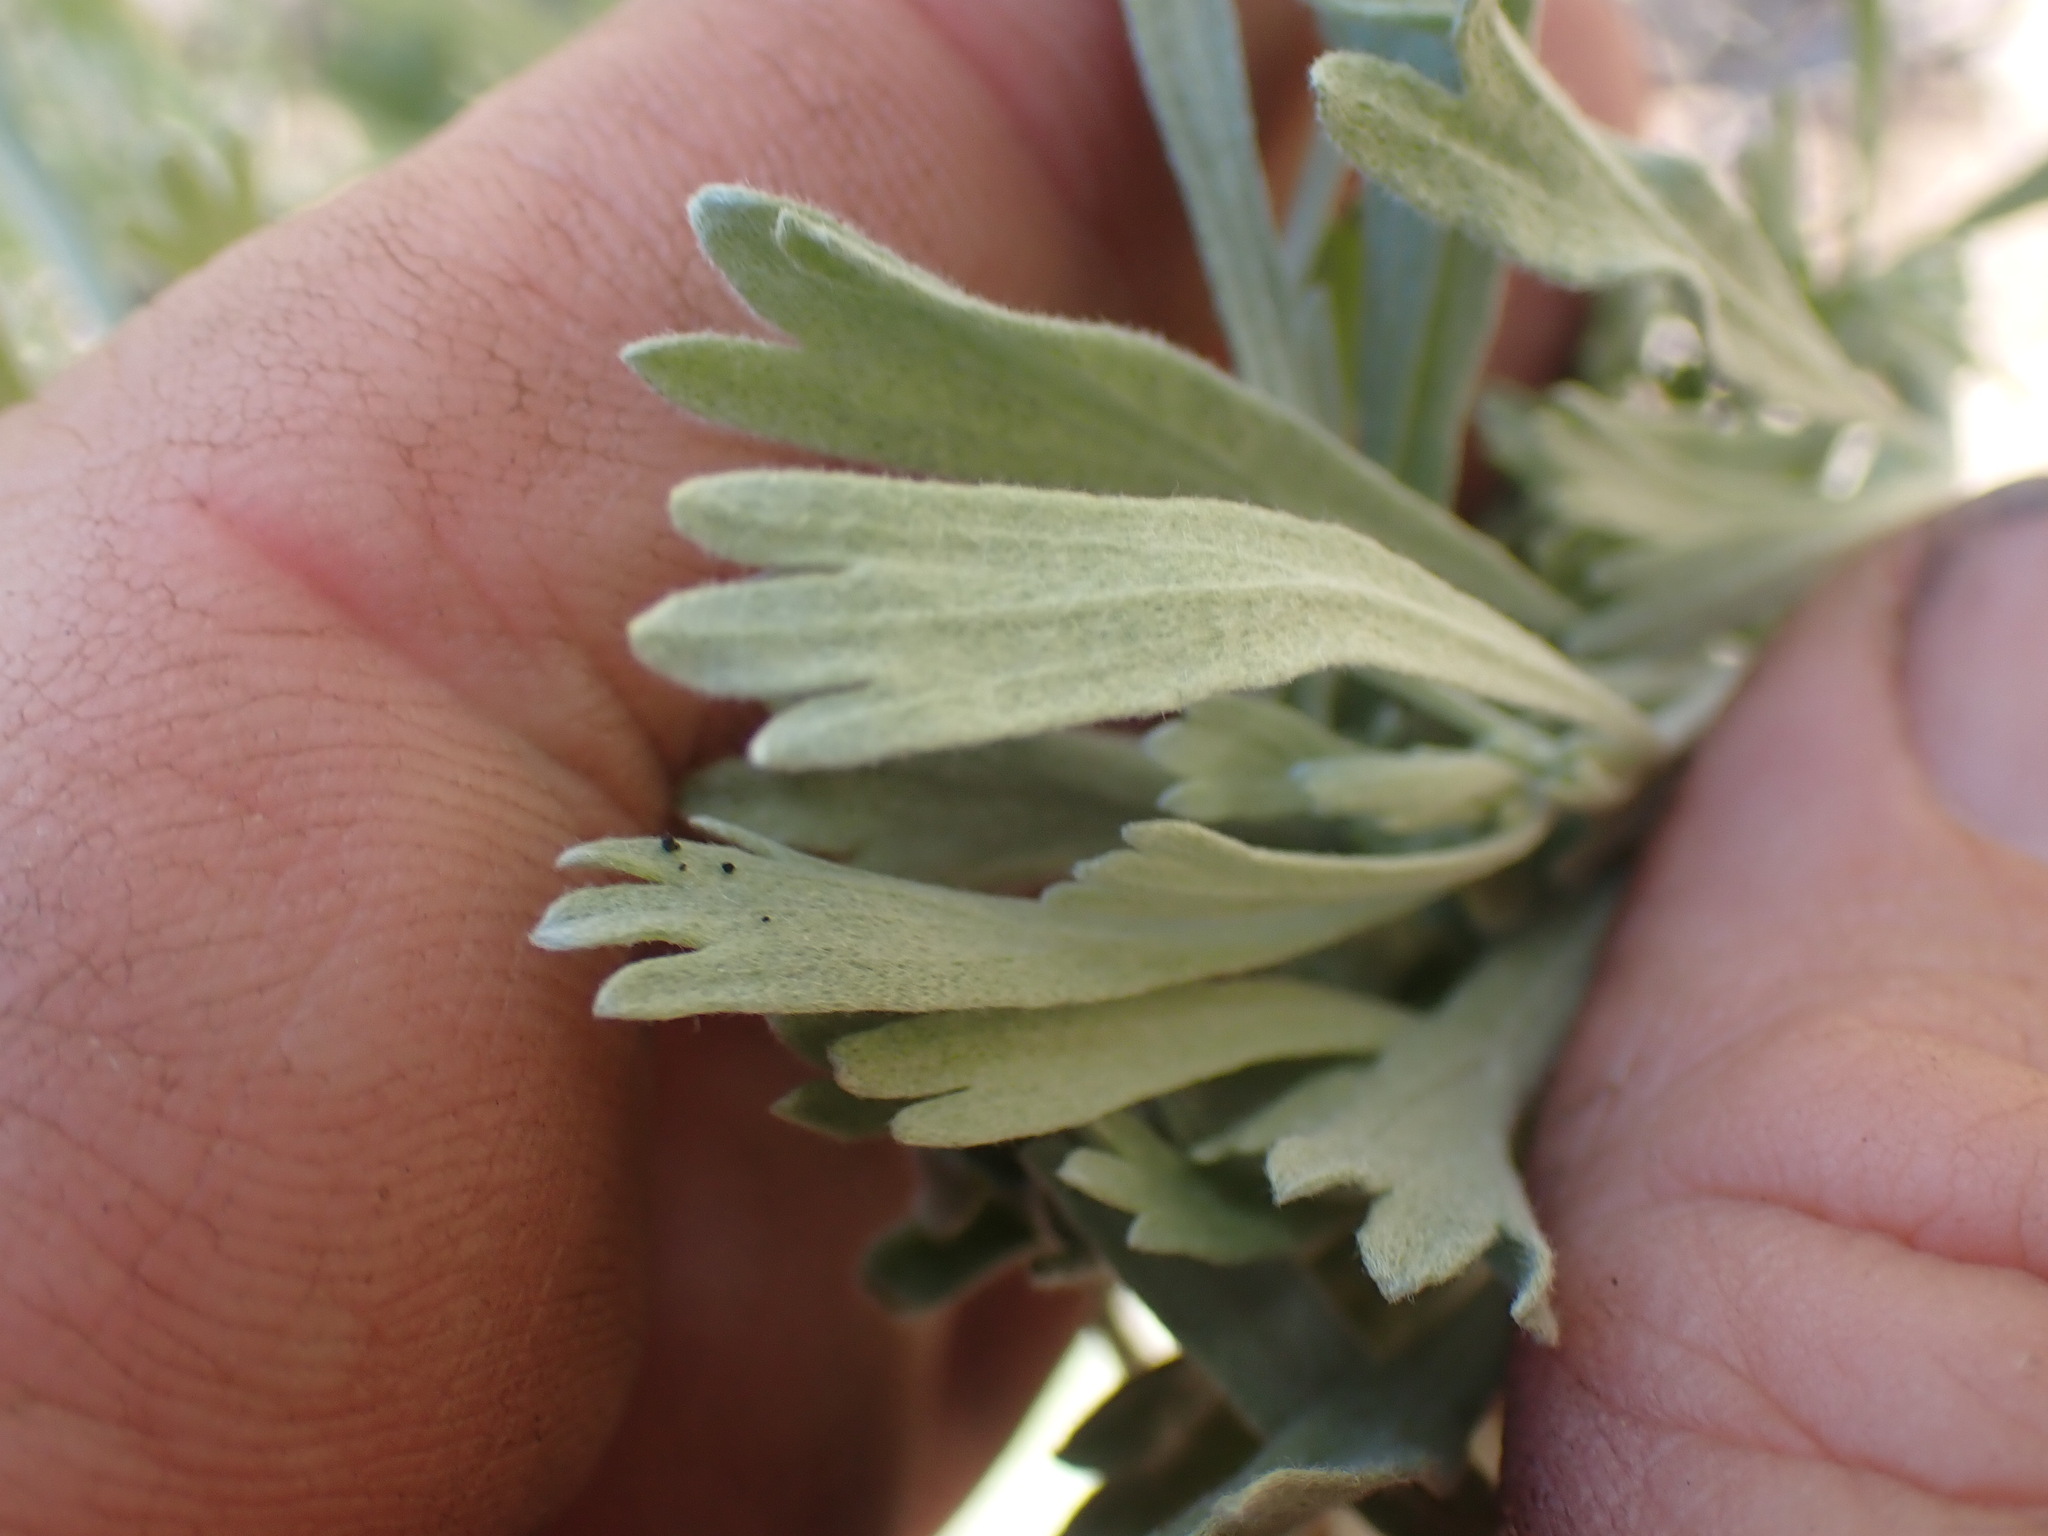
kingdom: Plantae
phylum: Tracheophyta
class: Magnoliopsida
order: Asterales
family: Asteraceae
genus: Artemisia
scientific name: Artemisia tridentata
